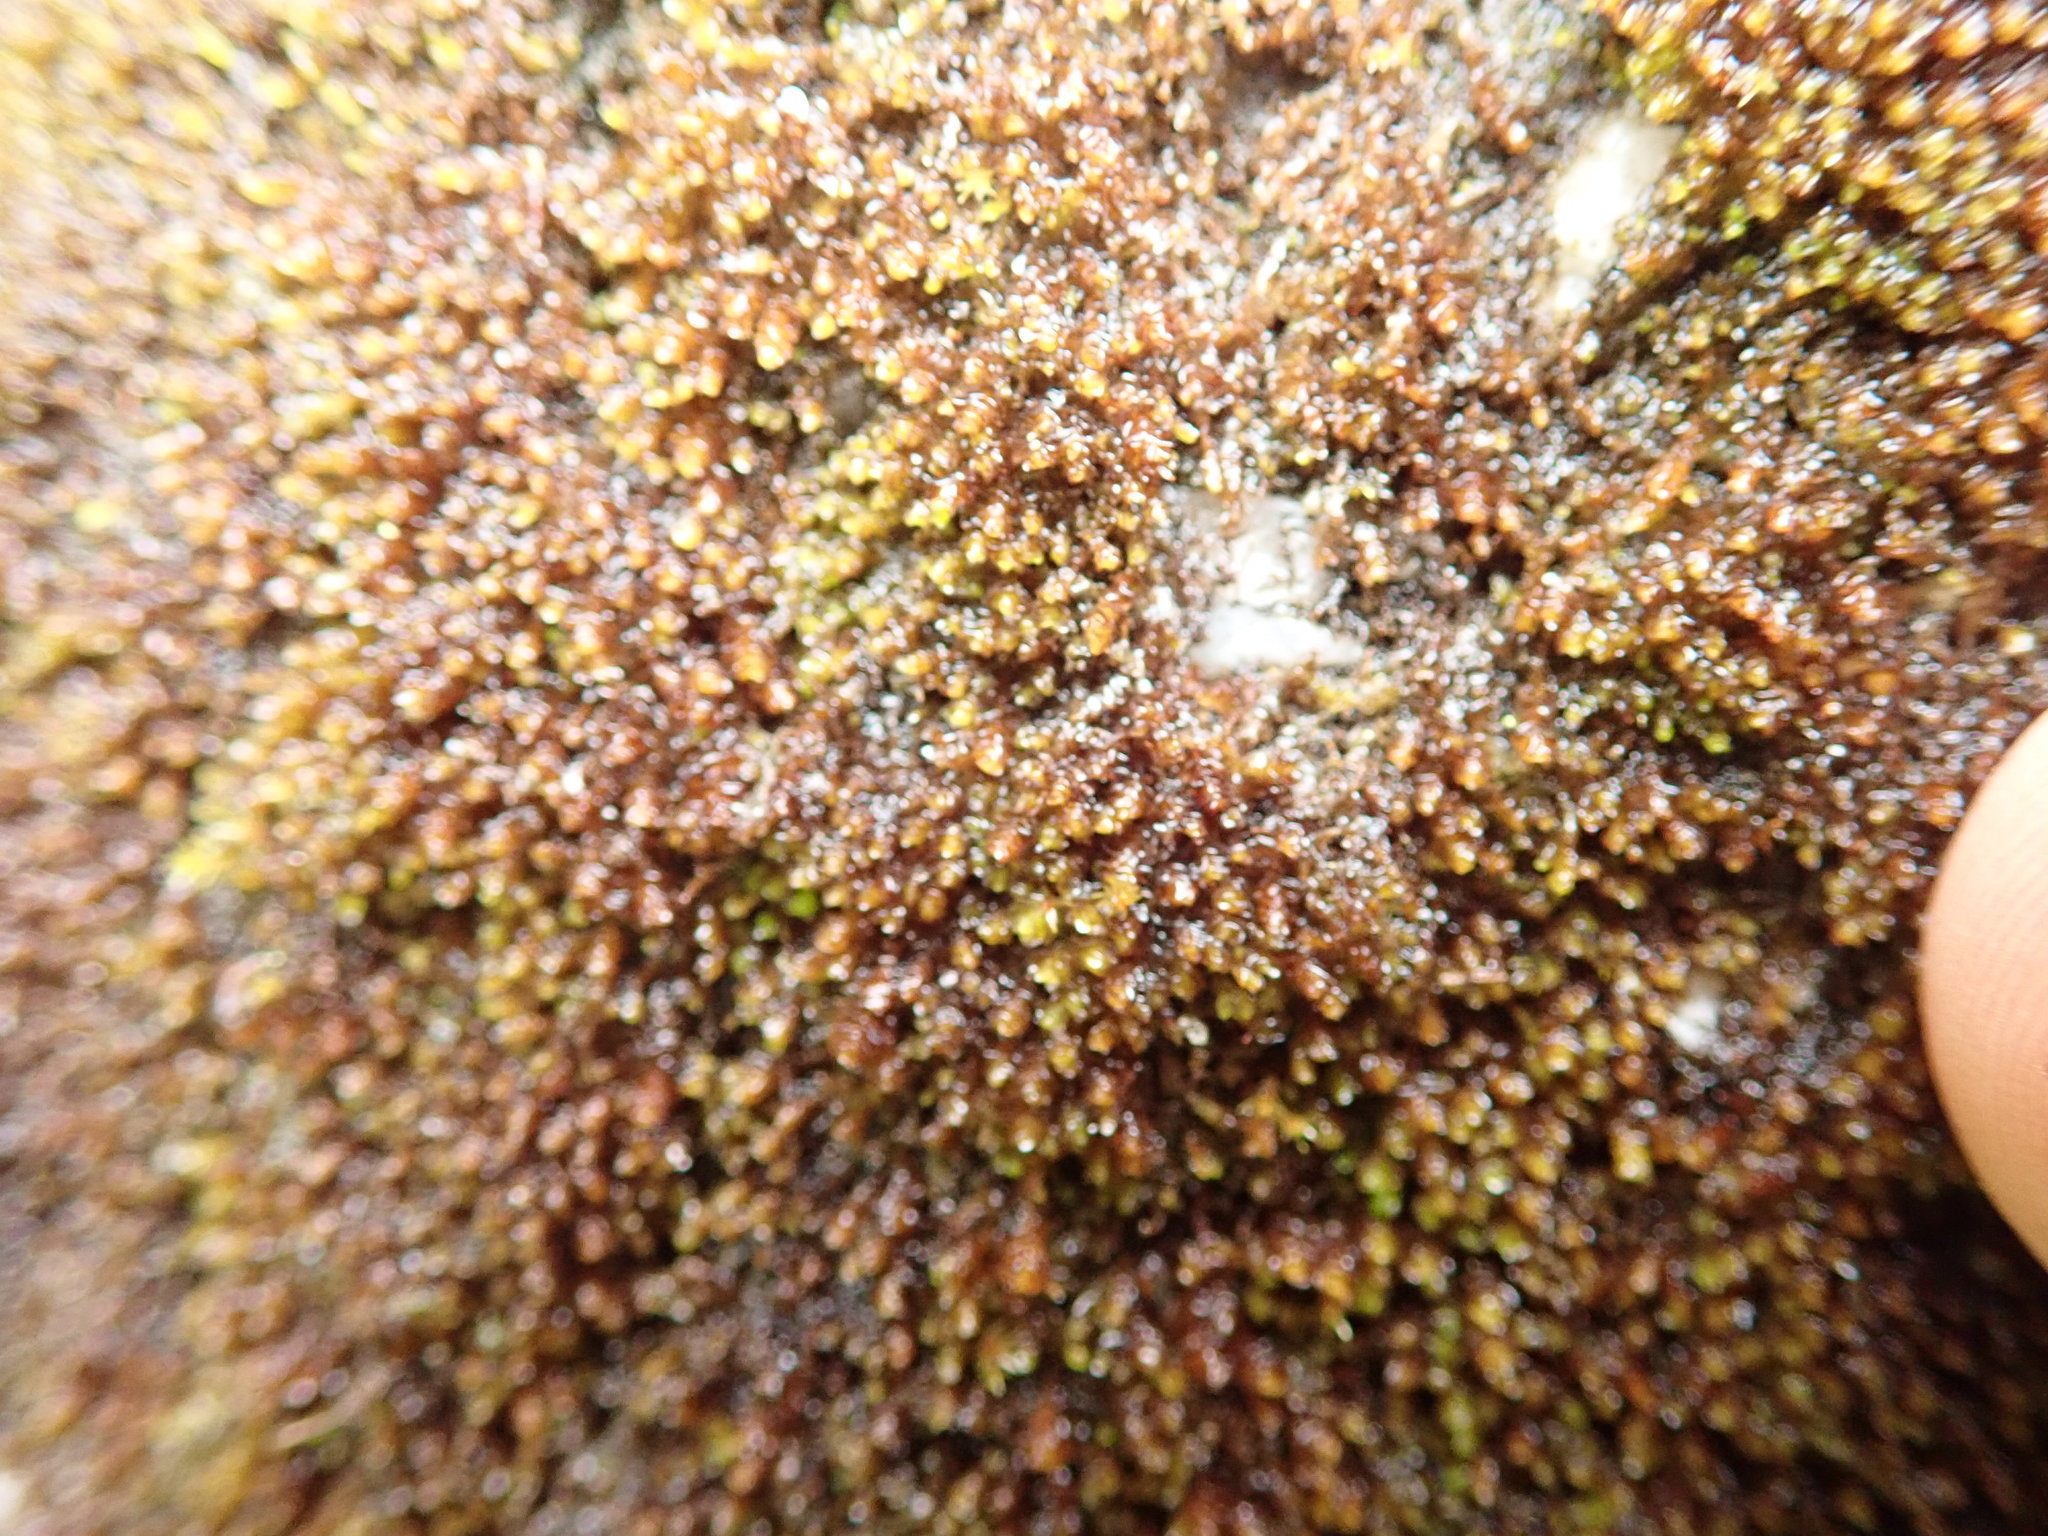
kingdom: Plantae
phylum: Marchantiophyta
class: Jungermanniopsida
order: Jungermanniales
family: Gymnomitriaceae
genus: Marsupella
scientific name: Marsupella emarginata
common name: Notched rustwort
